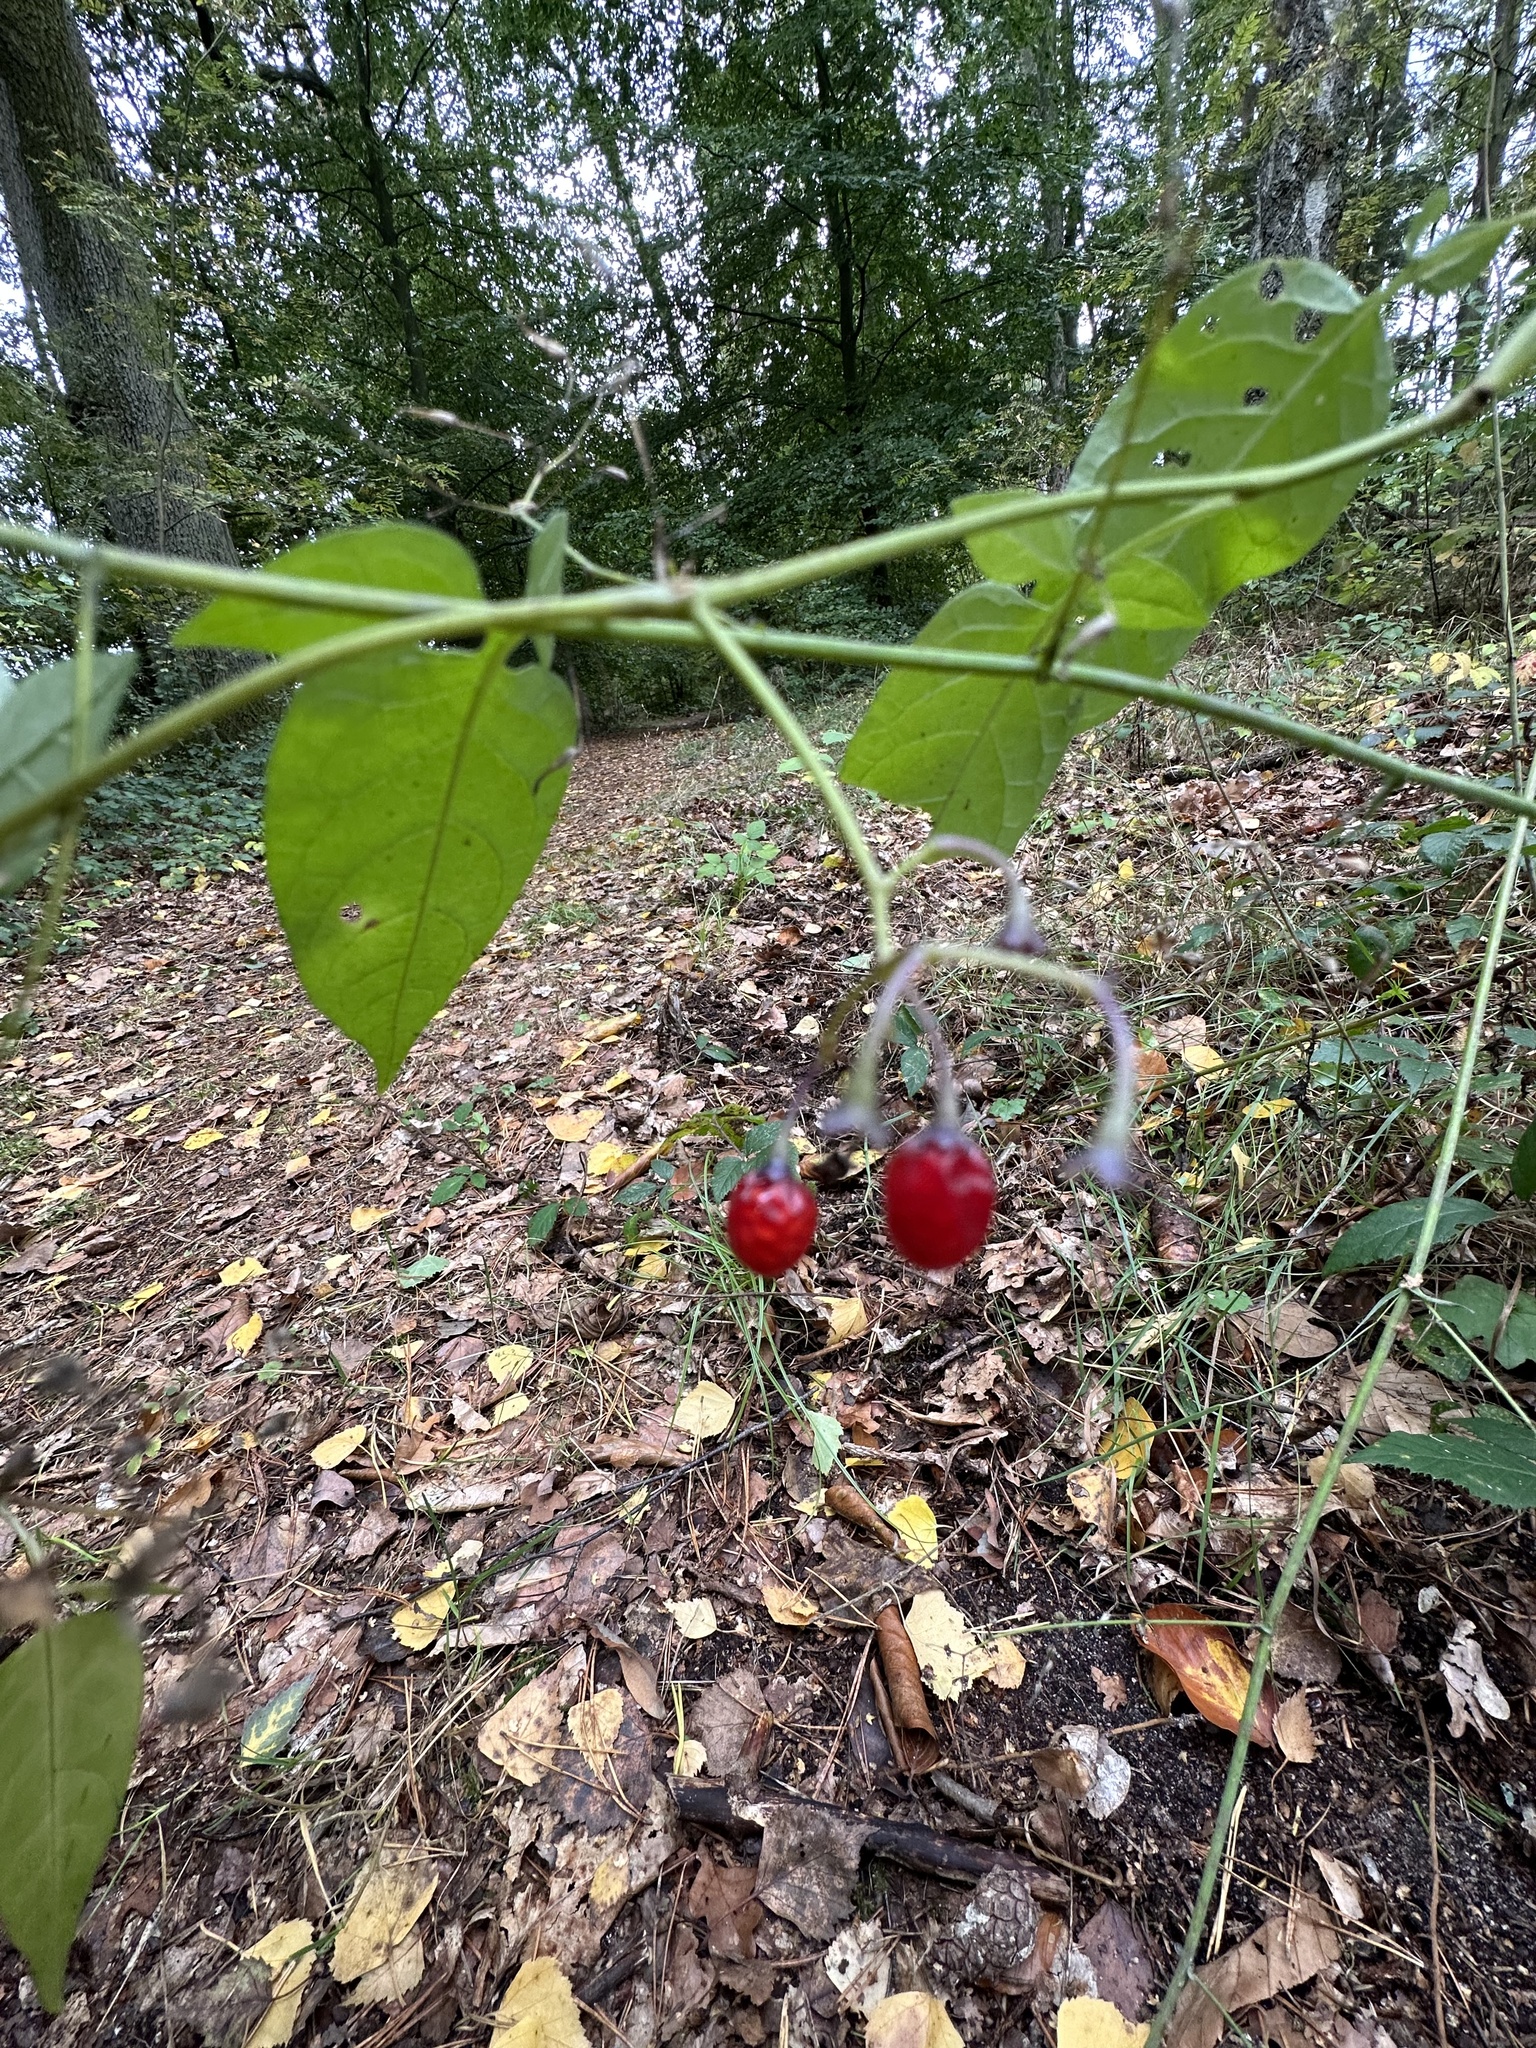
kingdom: Plantae
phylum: Tracheophyta
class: Magnoliopsida
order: Solanales
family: Solanaceae
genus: Solanum
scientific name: Solanum dulcamara
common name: Climbing nightshade
